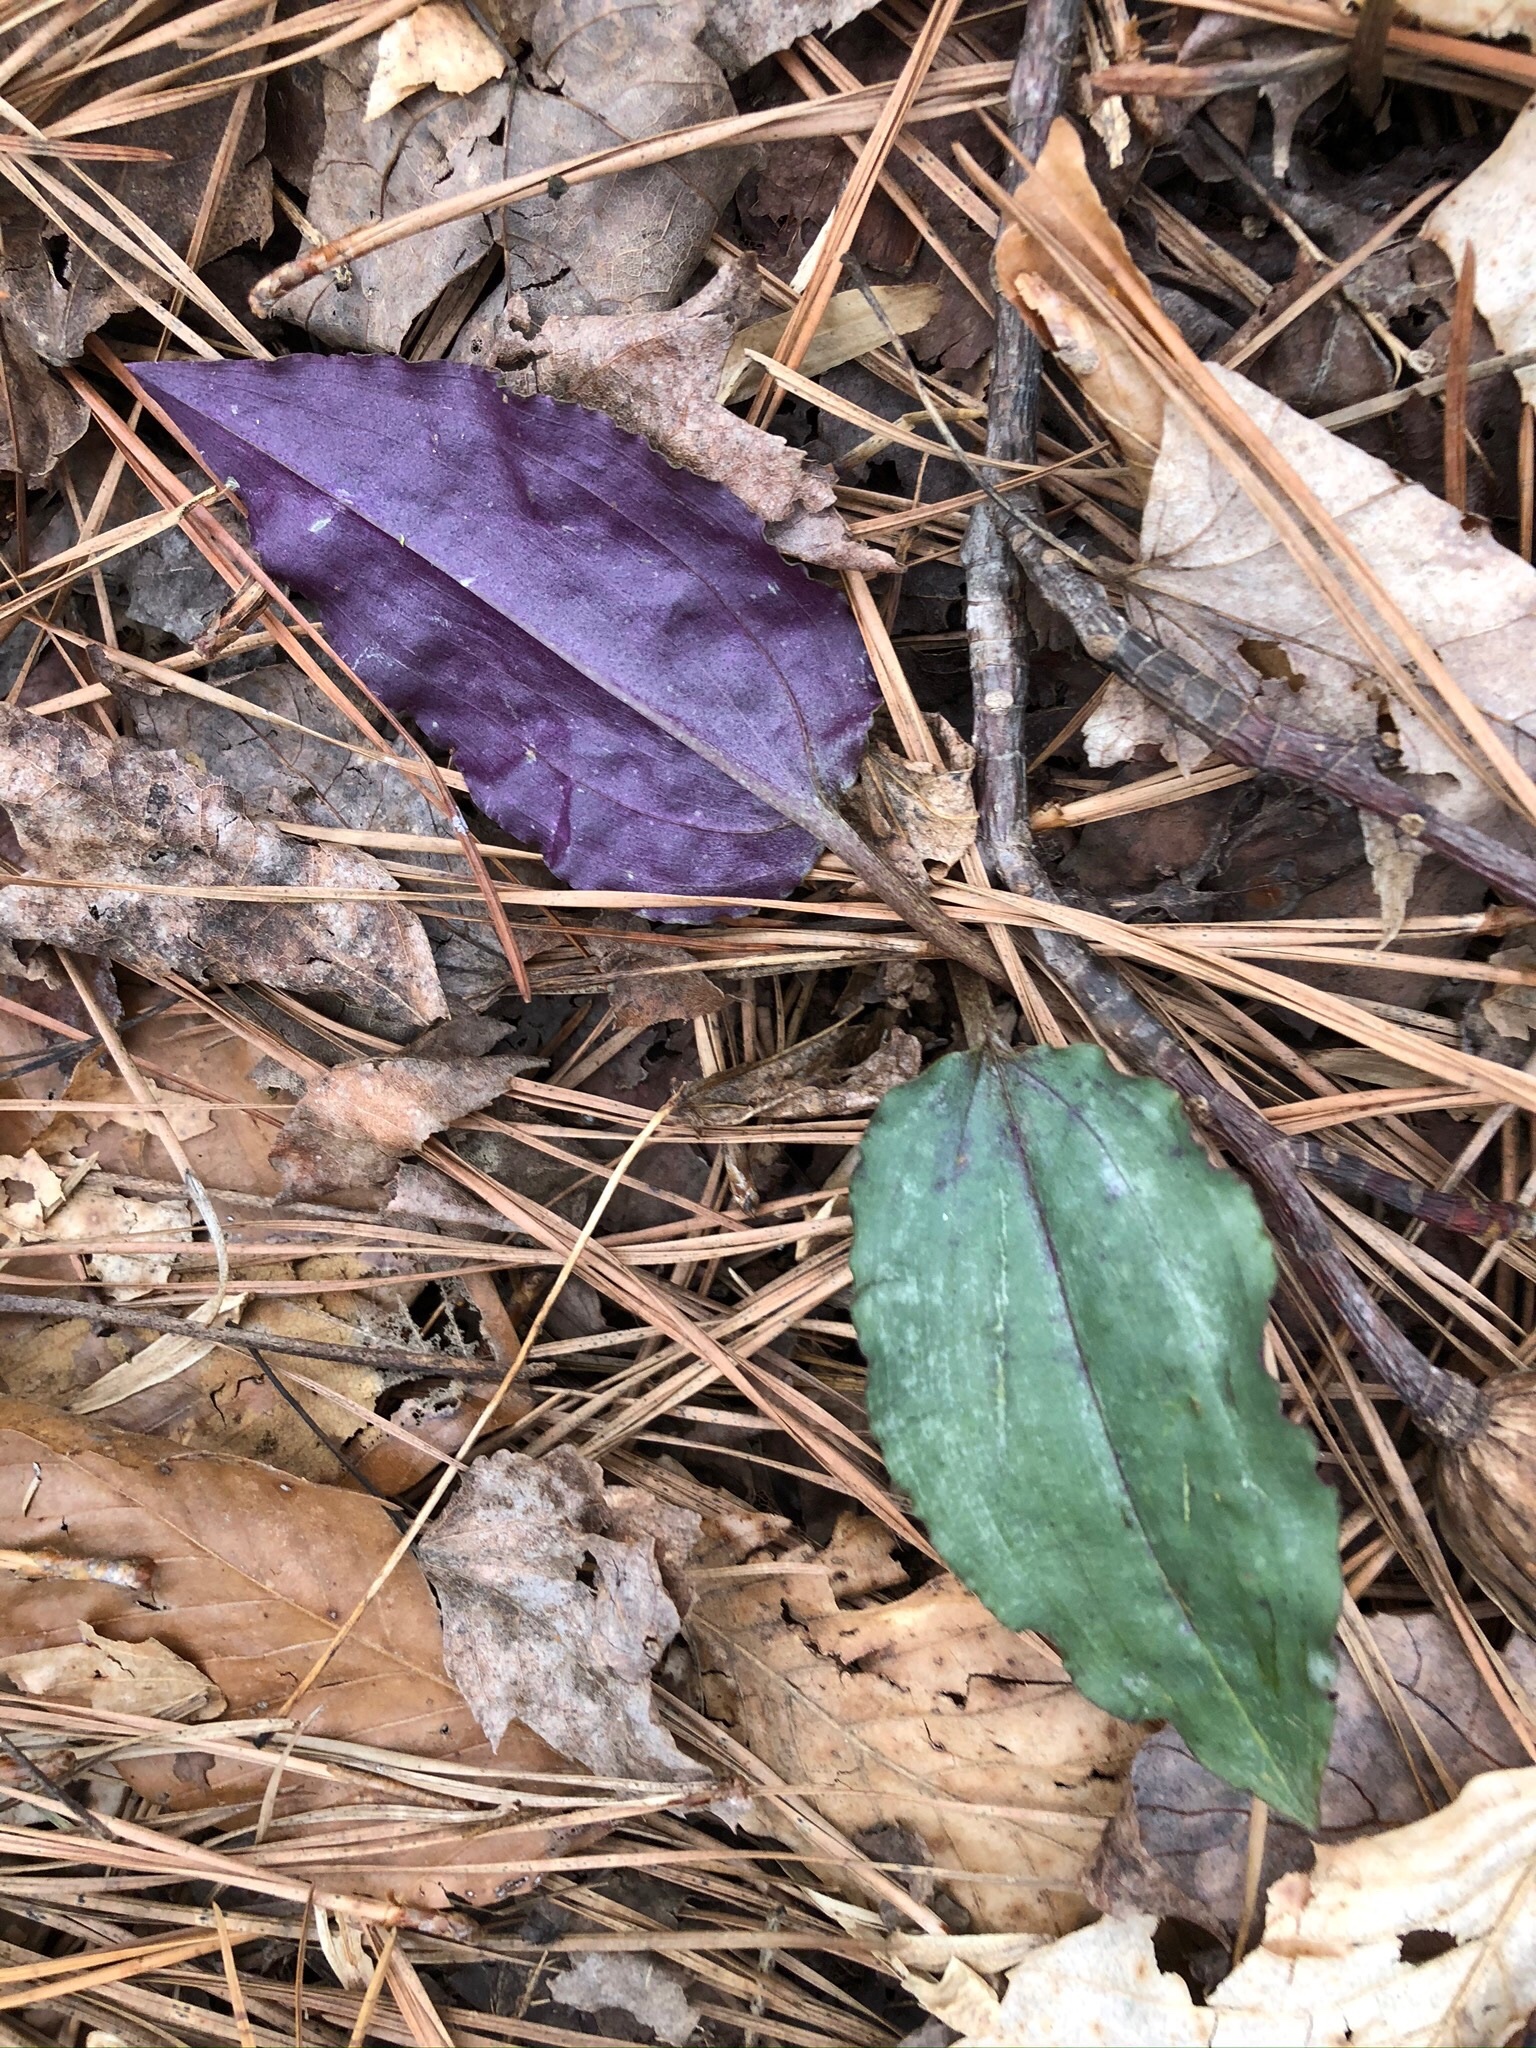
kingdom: Plantae
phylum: Tracheophyta
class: Liliopsida
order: Asparagales
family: Orchidaceae
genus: Tipularia
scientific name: Tipularia discolor
